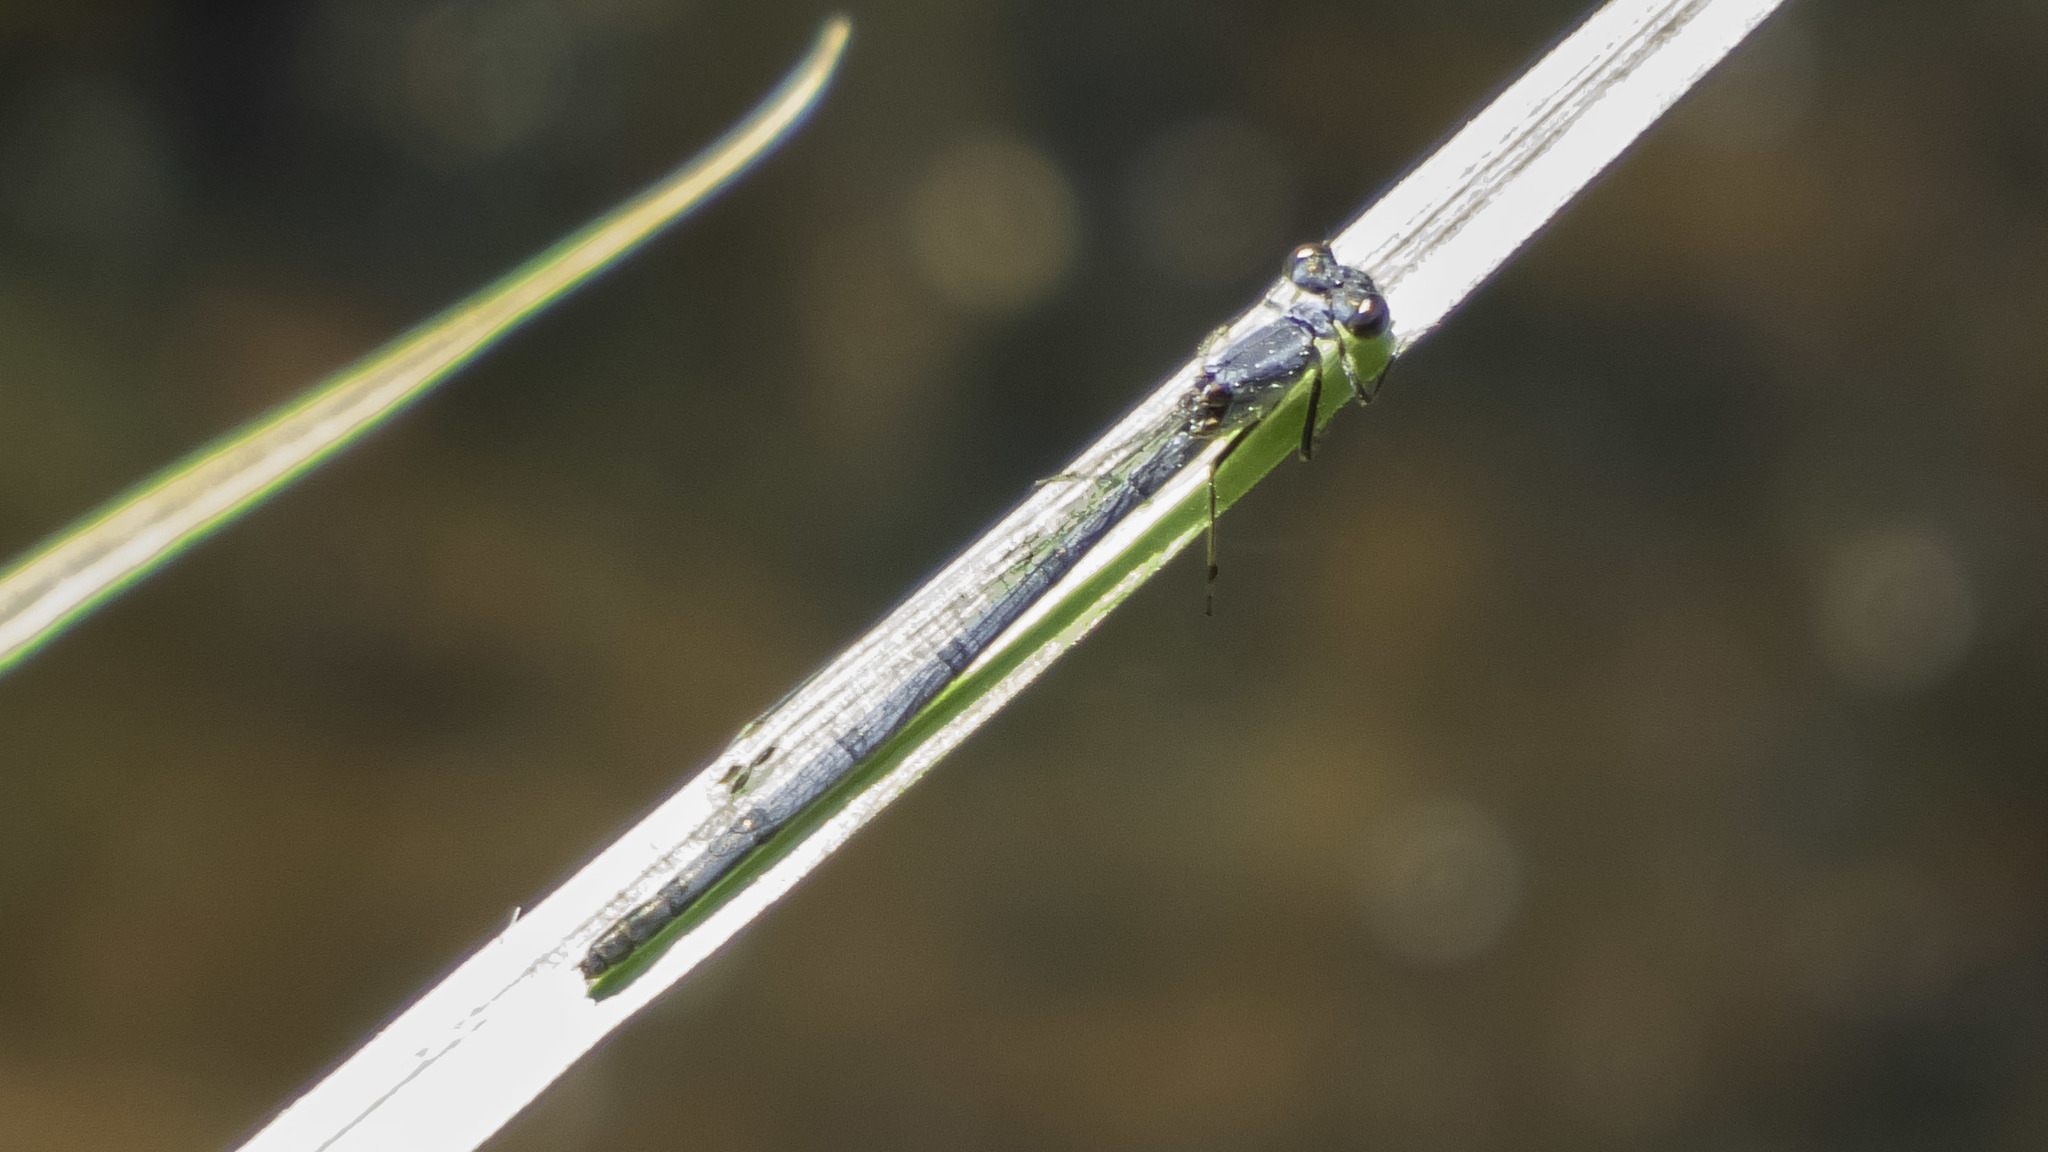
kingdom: Animalia
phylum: Arthropoda
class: Insecta
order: Odonata
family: Coenagrionidae
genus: Ischnura
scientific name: Ischnura posita
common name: Fragile forktail
